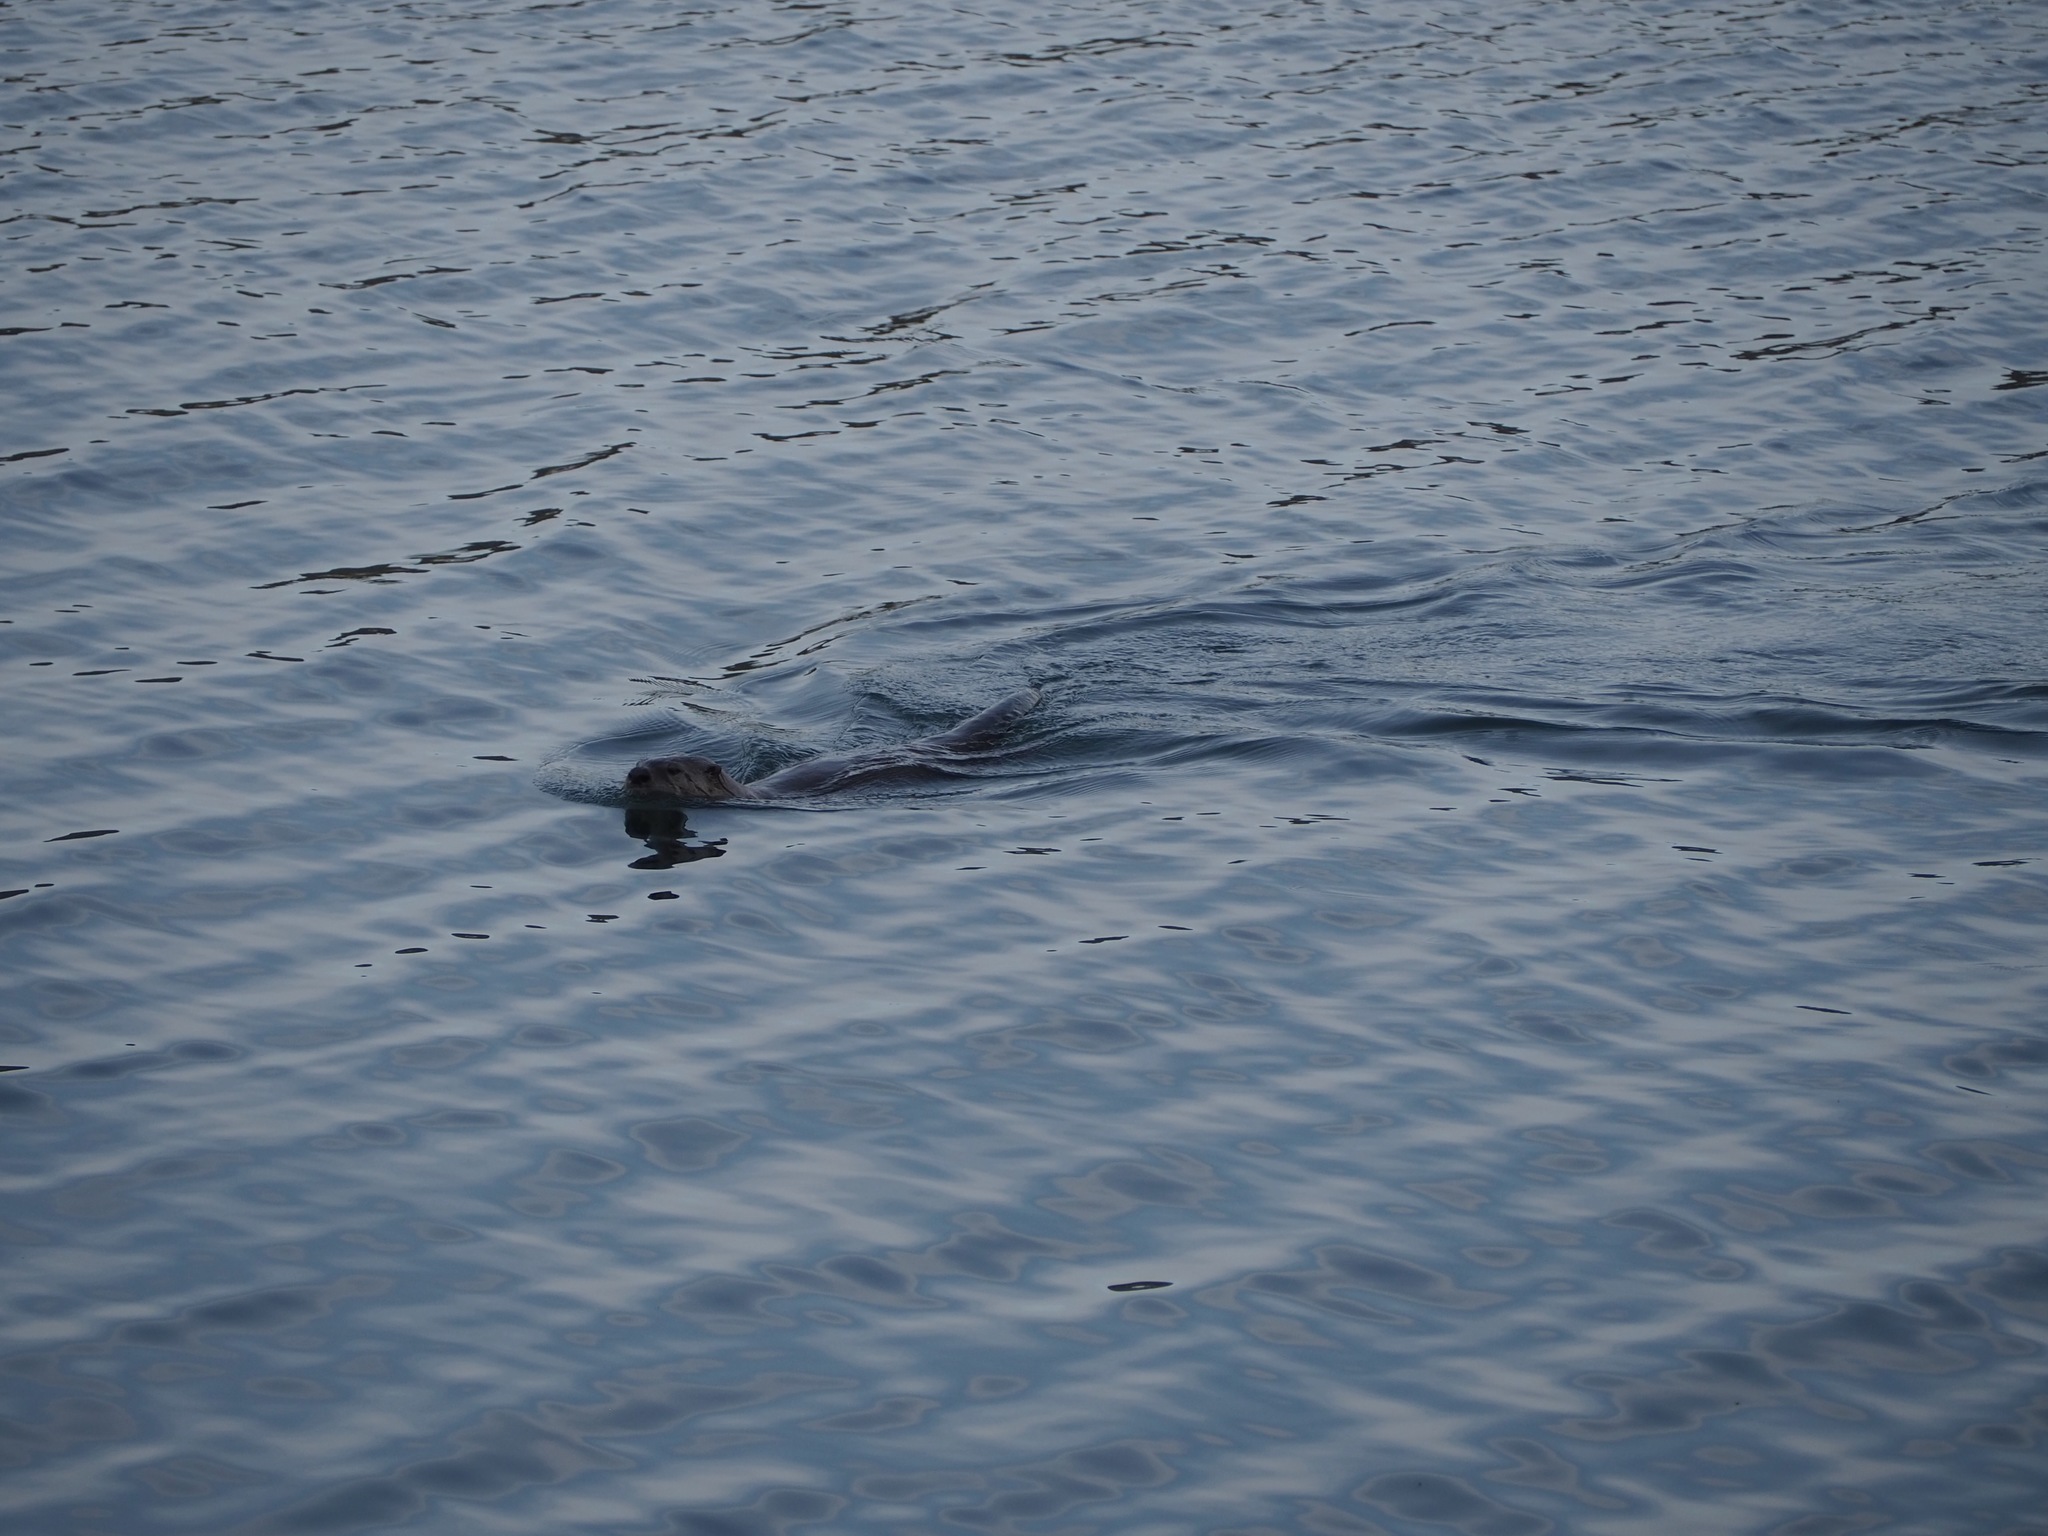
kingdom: Animalia
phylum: Chordata
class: Mammalia
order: Carnivora
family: Mustelidae
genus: Lontra
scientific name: Lontra canadensis
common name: North american river otter
